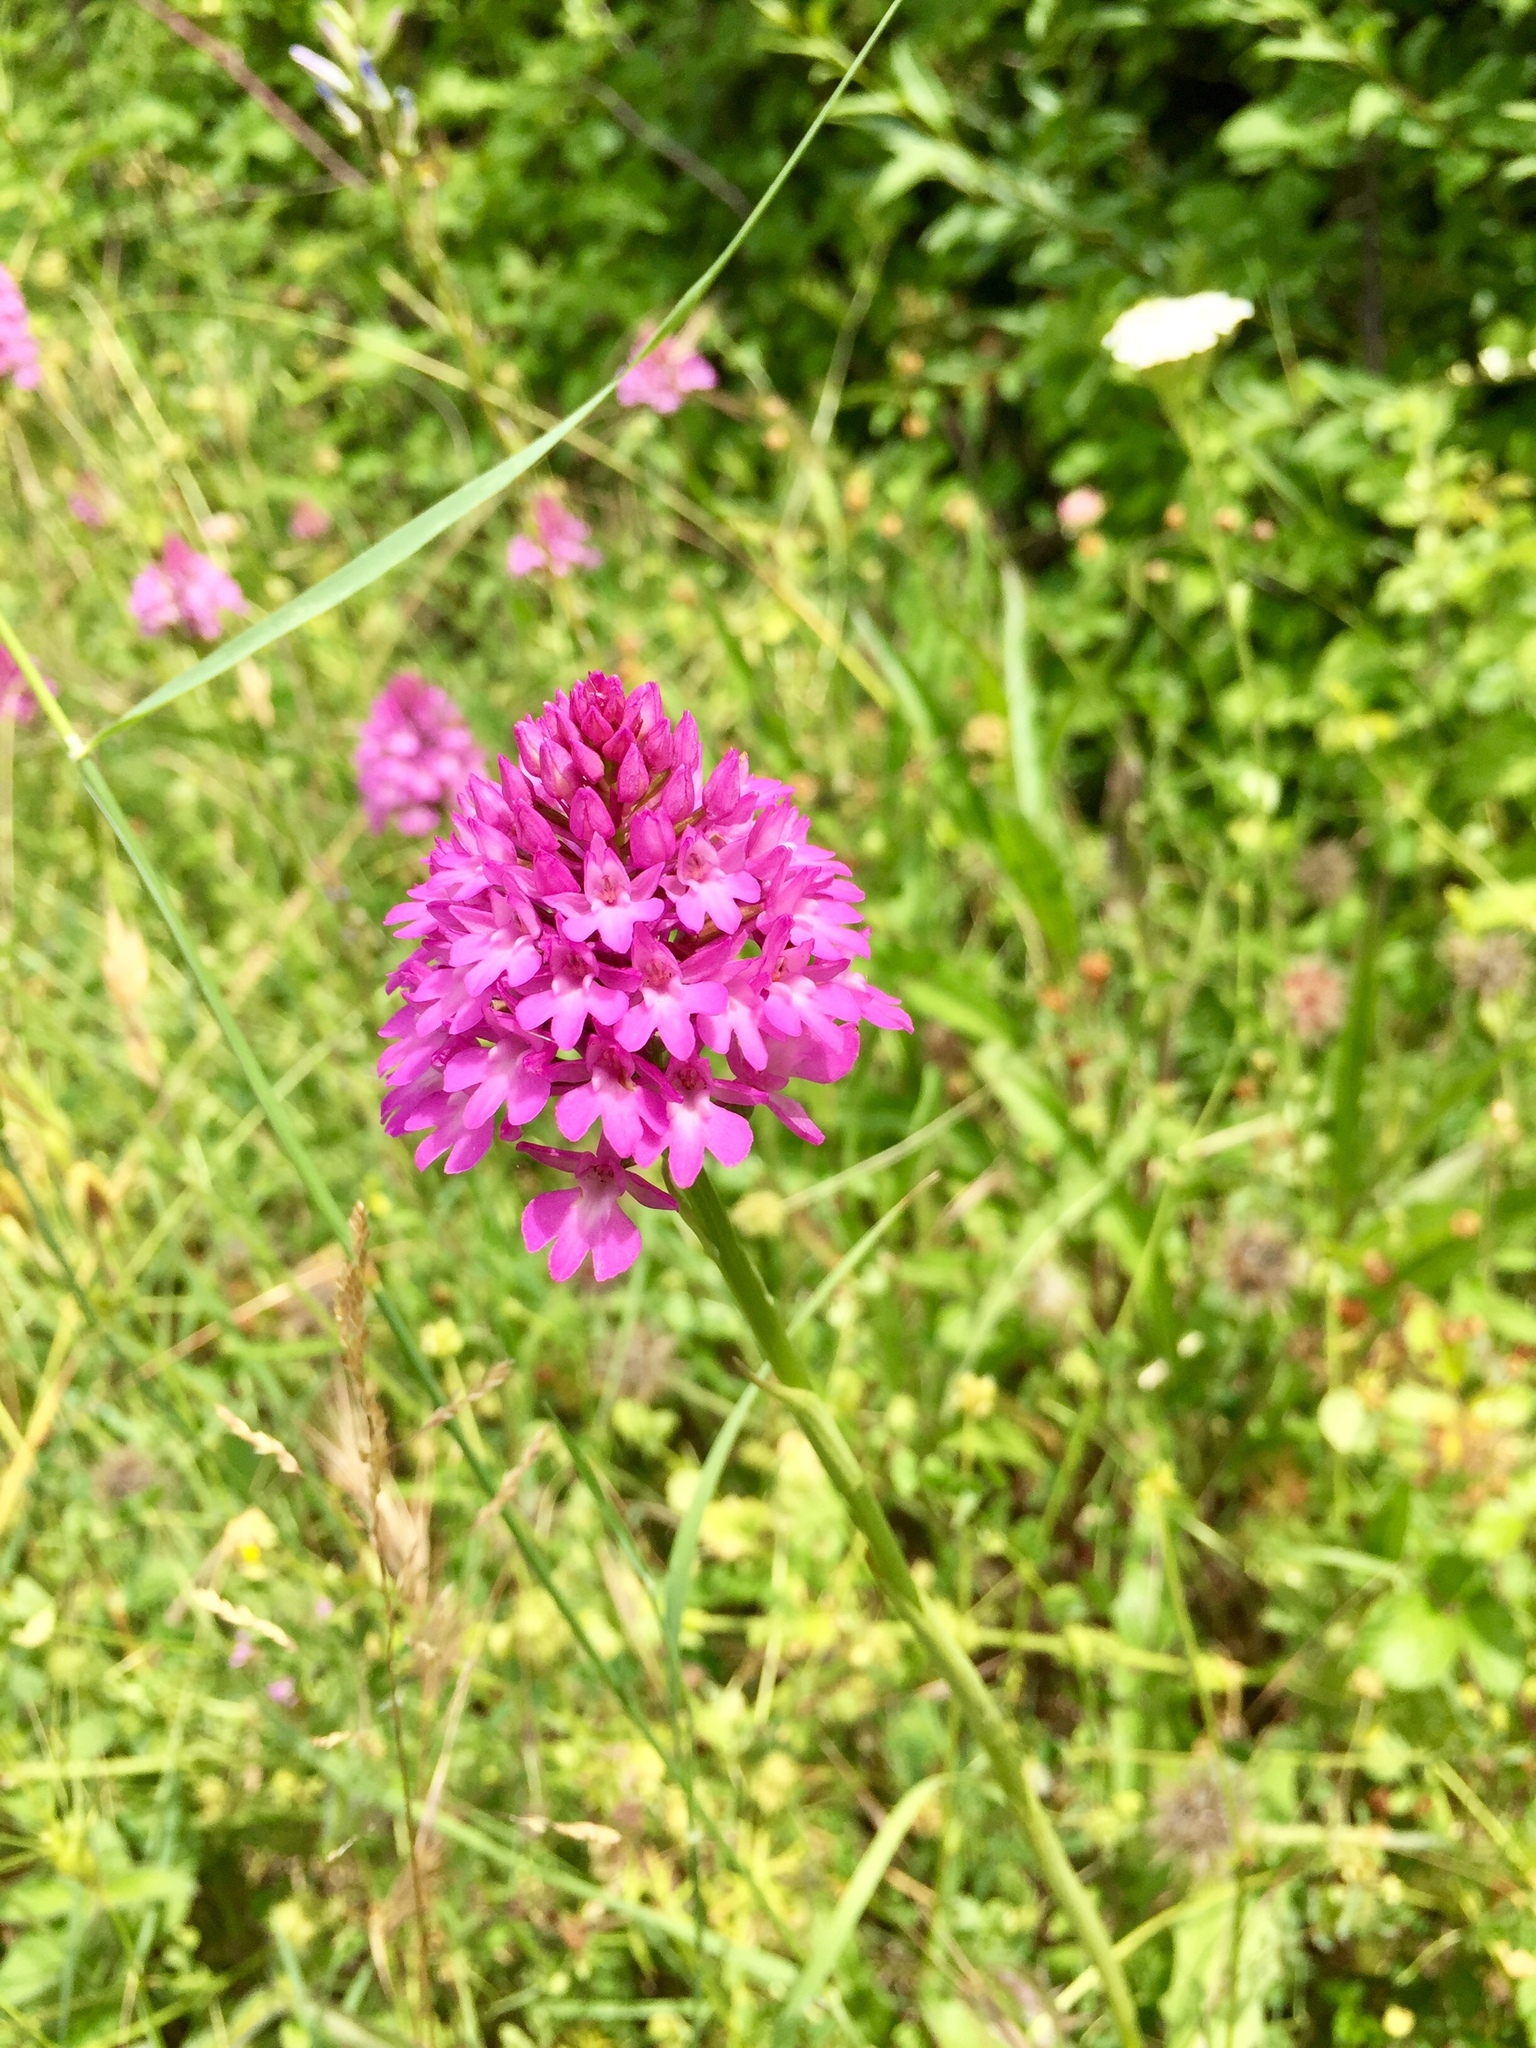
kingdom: Plantae
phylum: Tracheophyta
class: Liliopsida
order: Asparagales
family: Orchidaceae
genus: Anacamptis
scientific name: Anacamptis pyramidalis
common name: Pyramidal orchid
